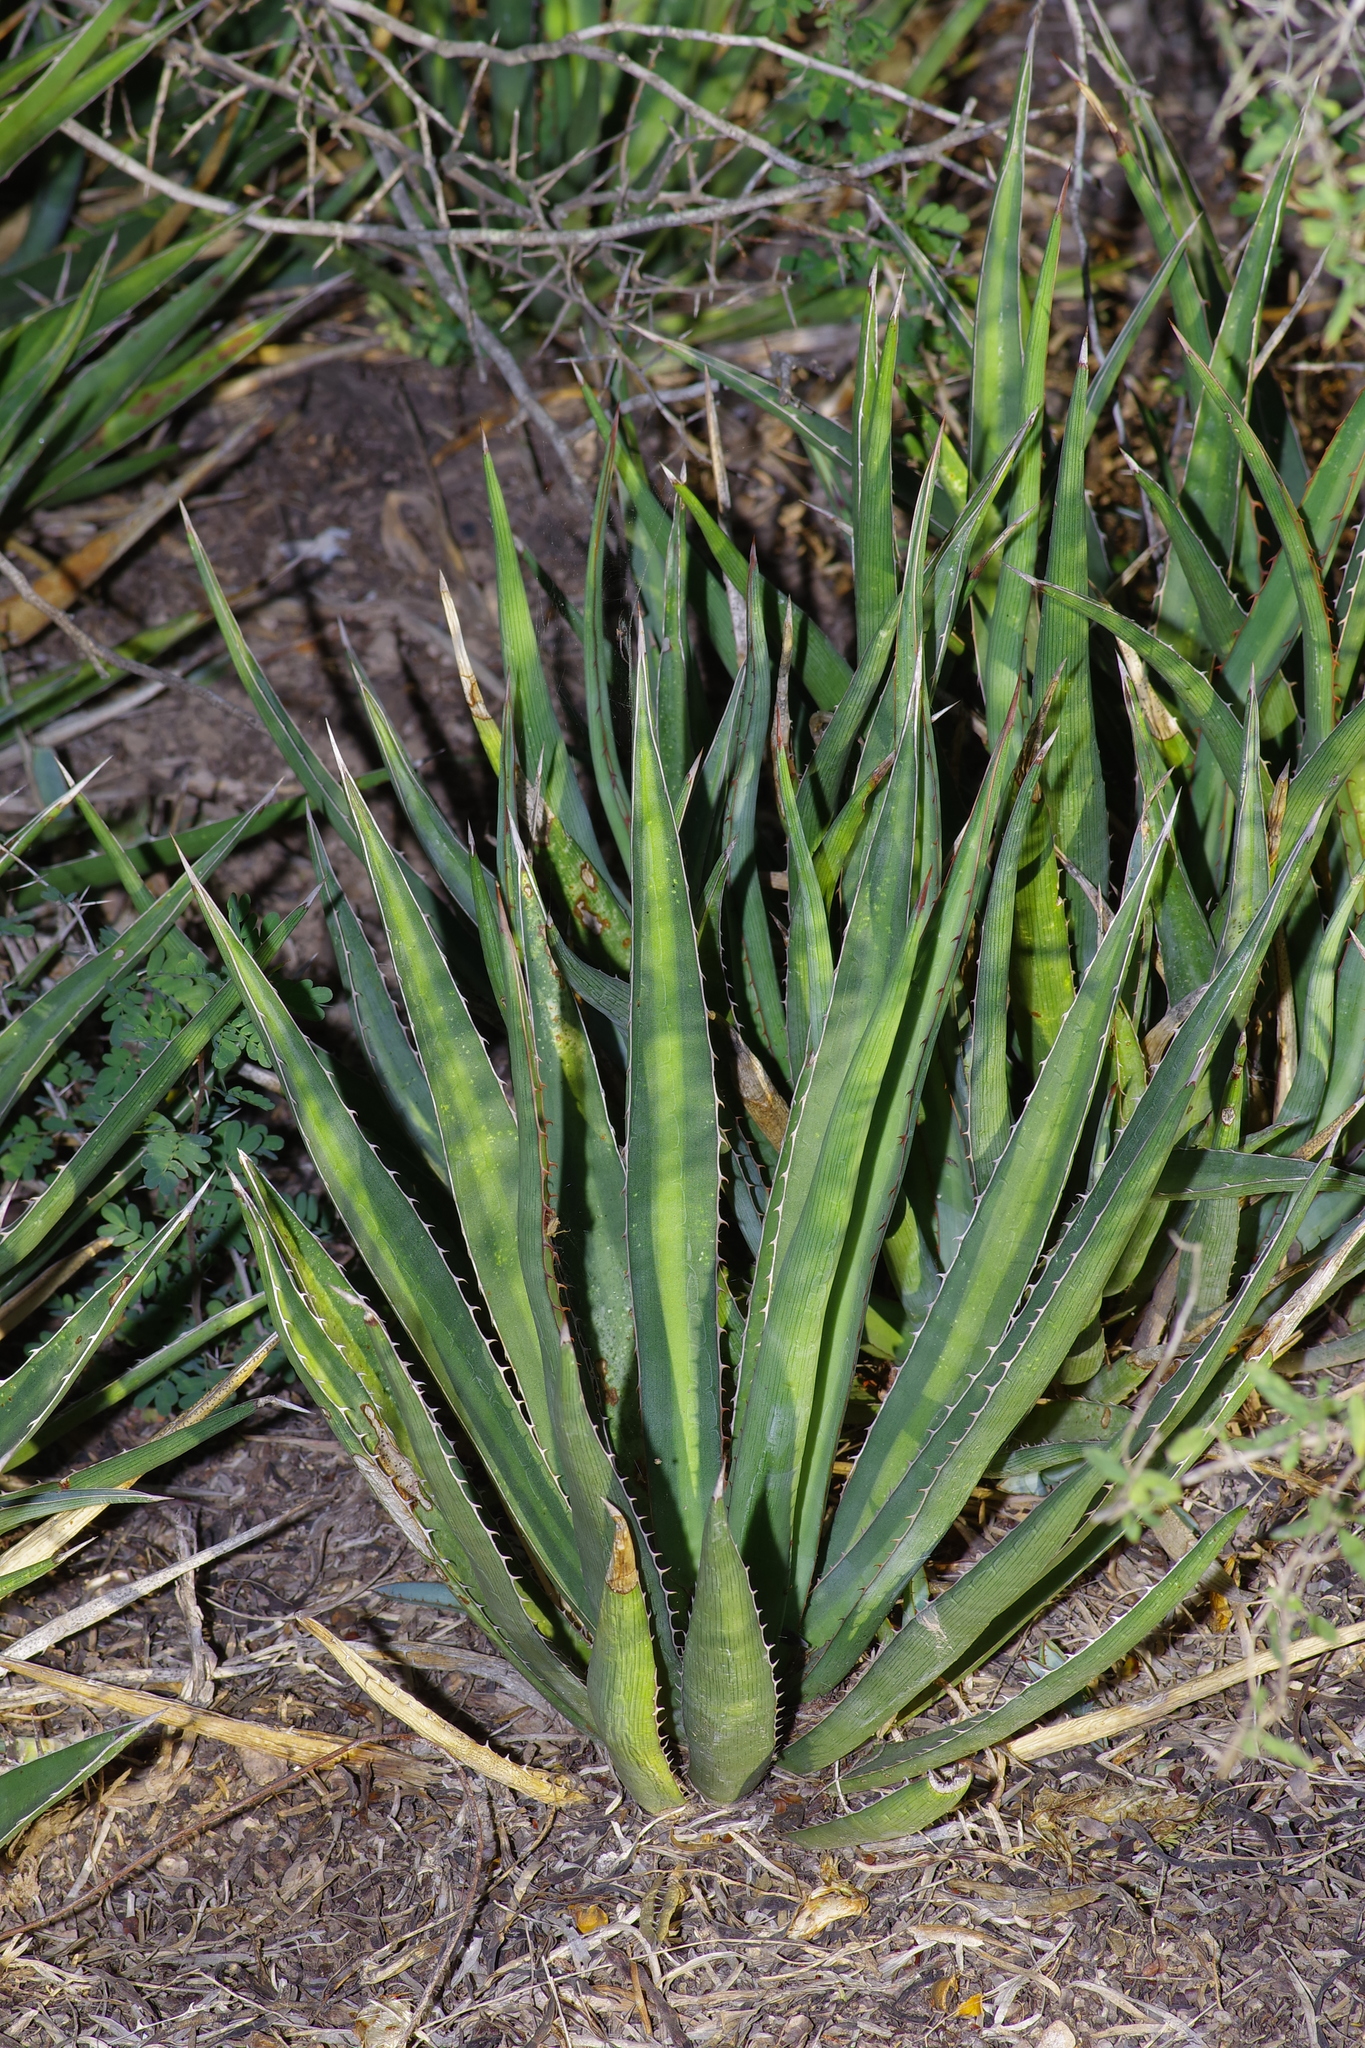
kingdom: Plantae
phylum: Tracheophyta
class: Liliopsida
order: Asparagales
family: Asparagaceae
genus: Agave
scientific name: Agave univittata
